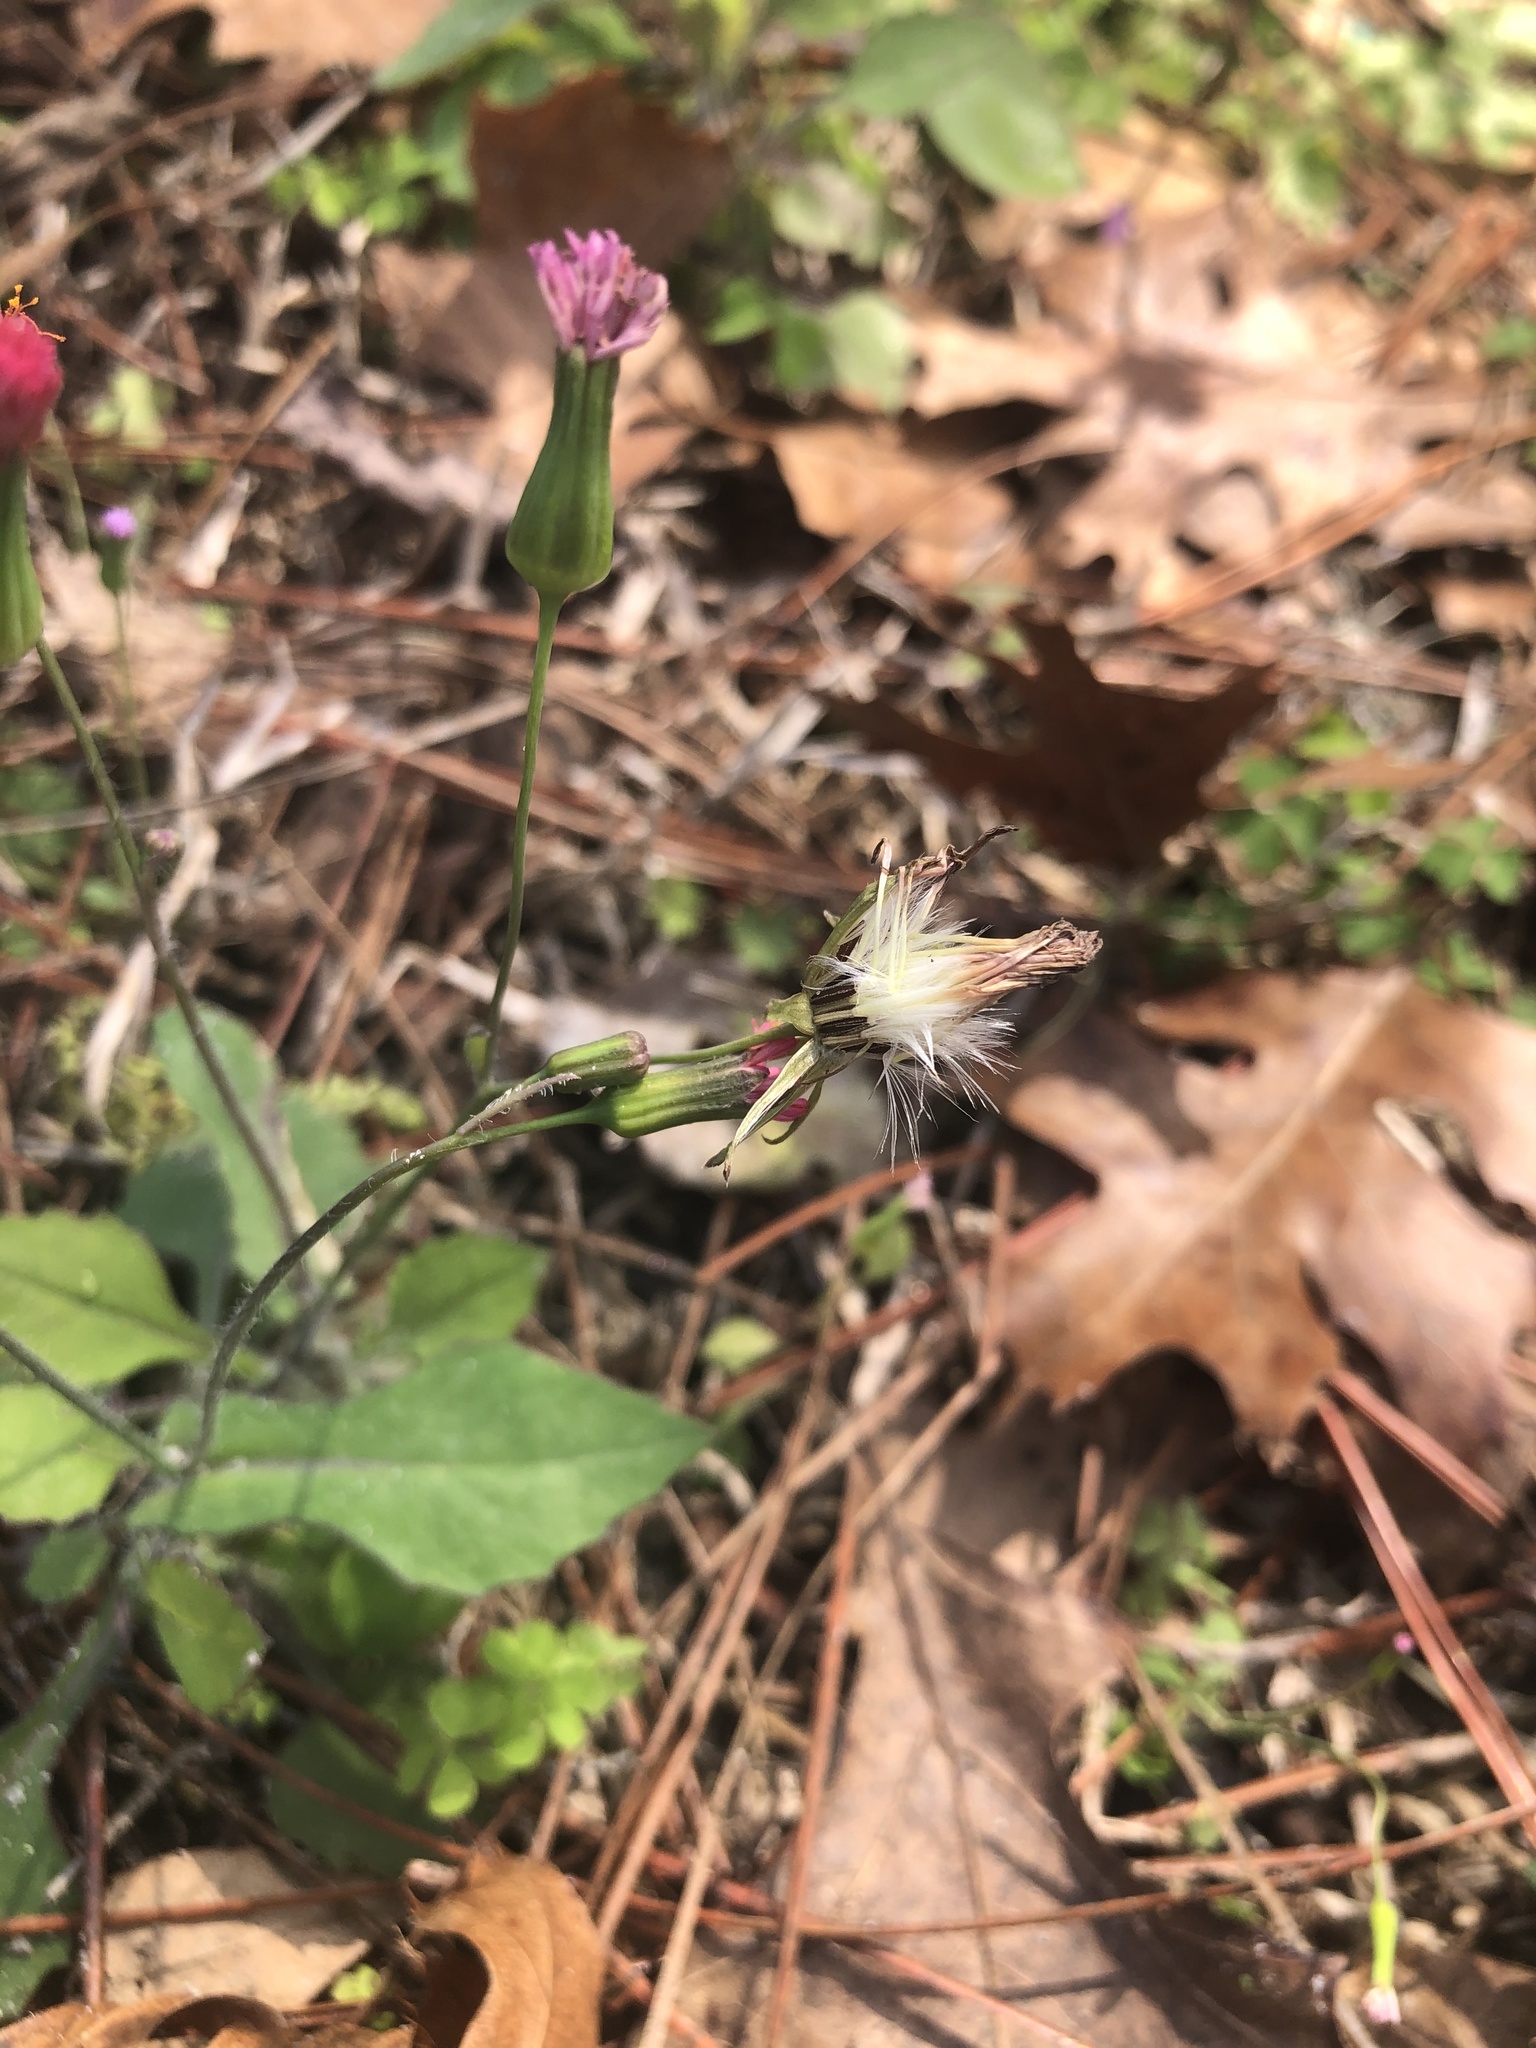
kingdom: Plantae
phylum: Tracheophyta
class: Magnoliopsida
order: Asterales
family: Asteraceae
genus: Emilia
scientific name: Emilia fosbergii
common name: Florida tasselflower
